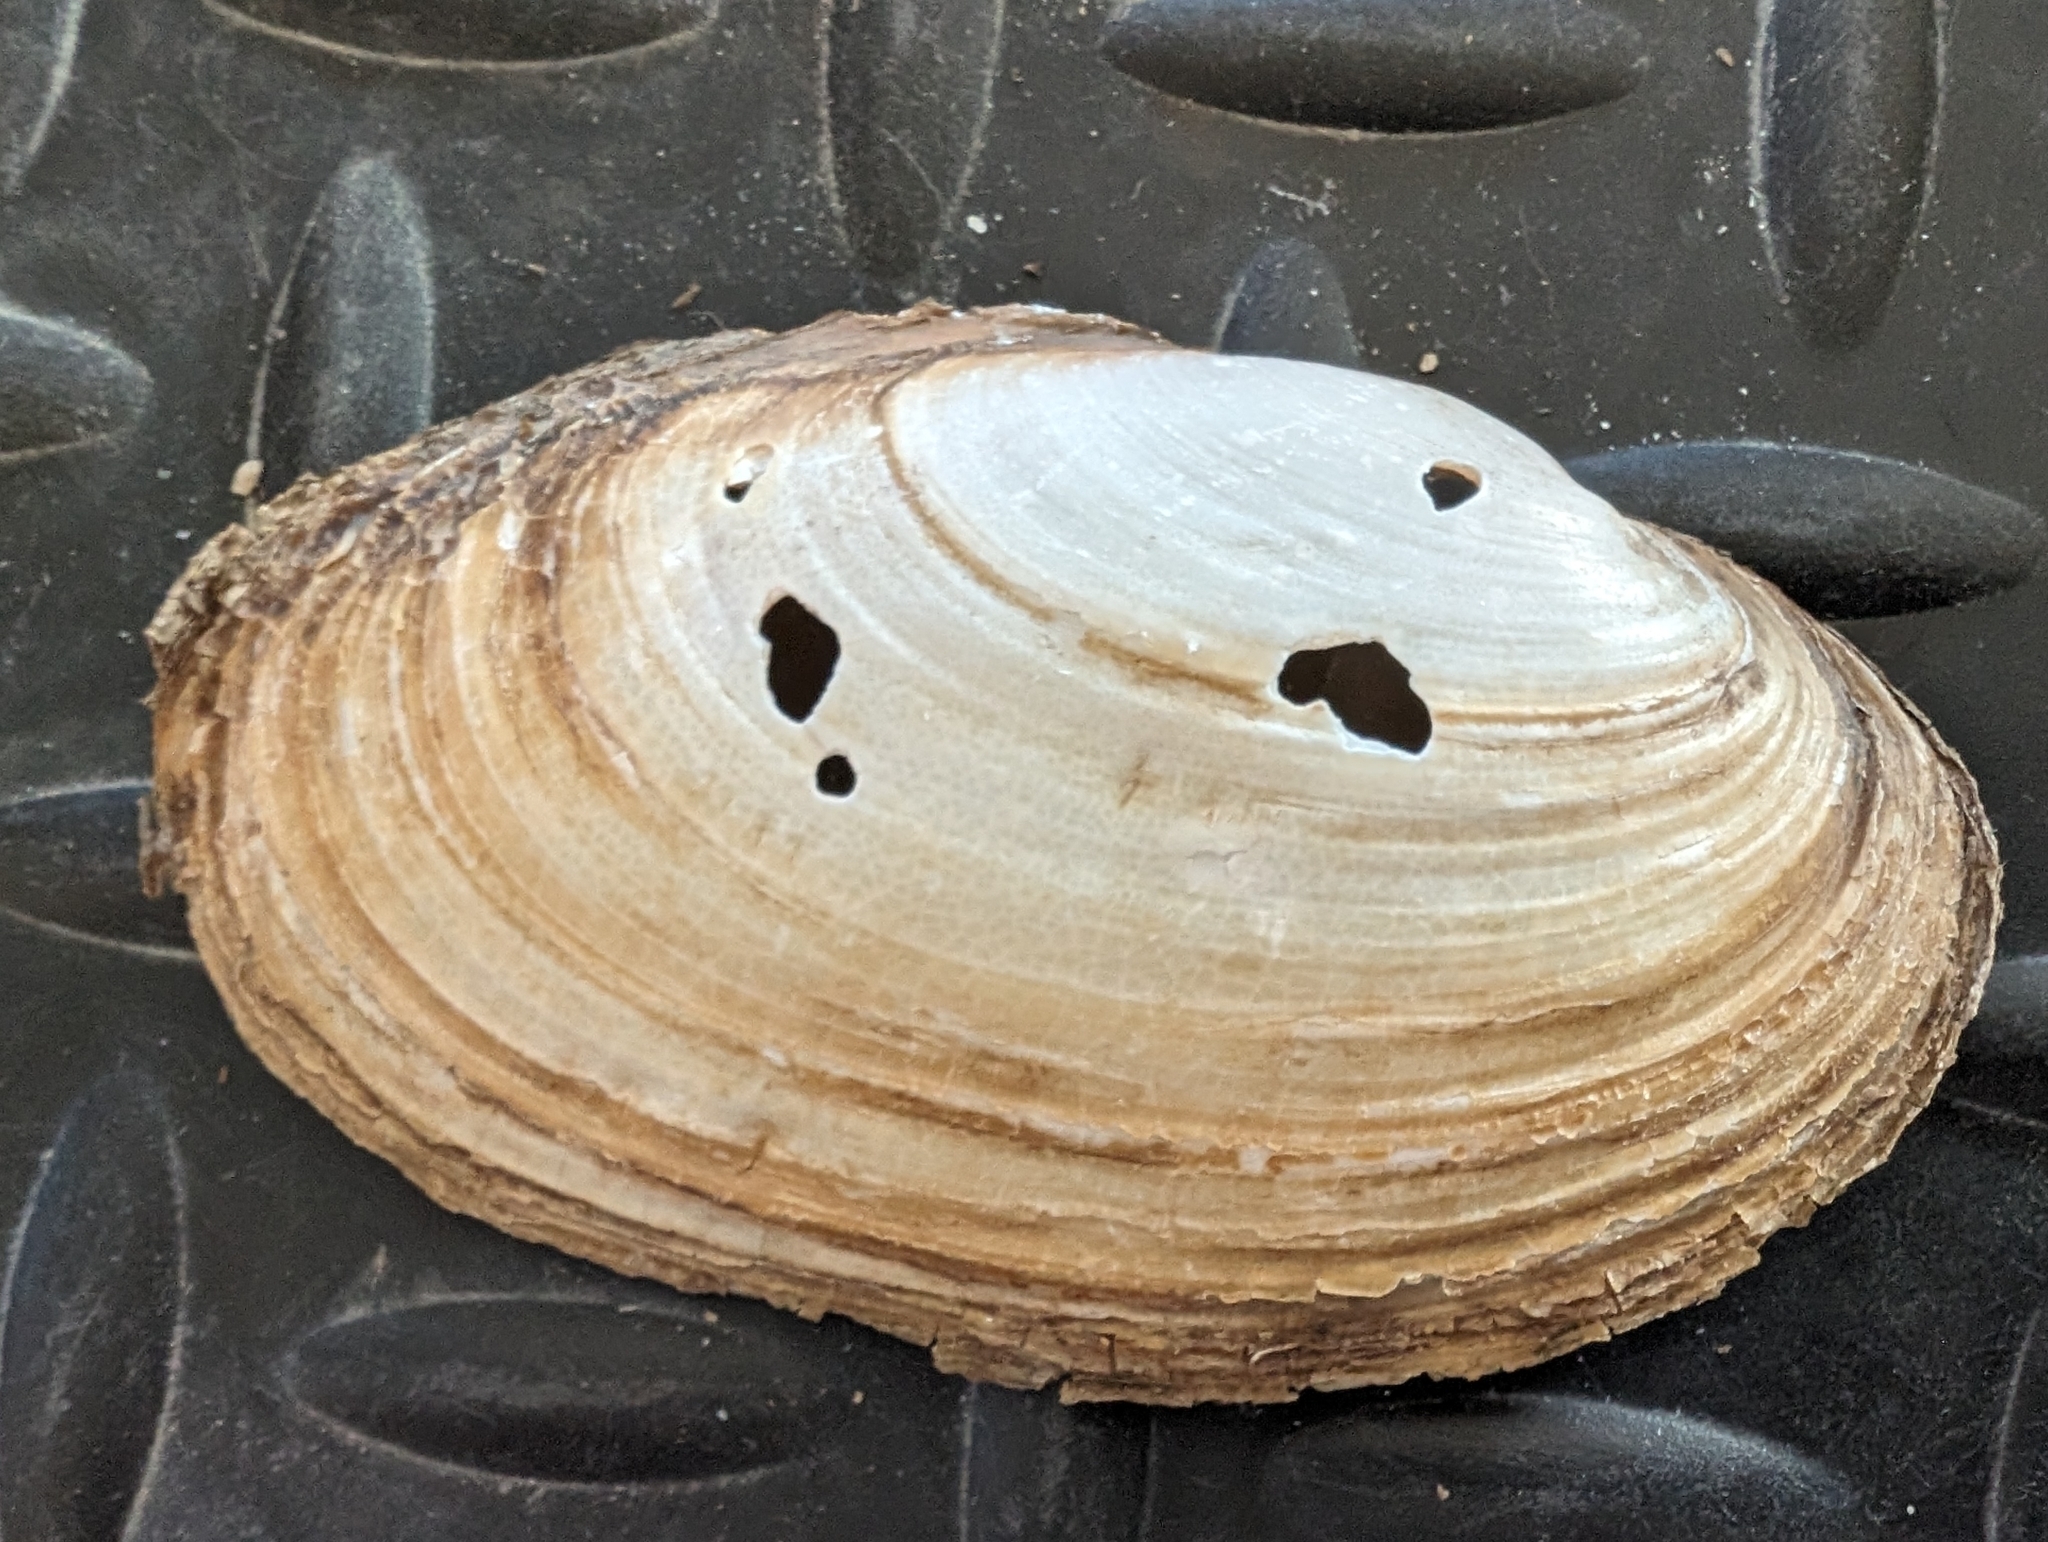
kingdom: Animalia
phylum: Mollusca
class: Bivalvia
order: Unionida
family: Unionidae
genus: Potamilus
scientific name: Potamilus fragilis
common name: Fragile papershell
